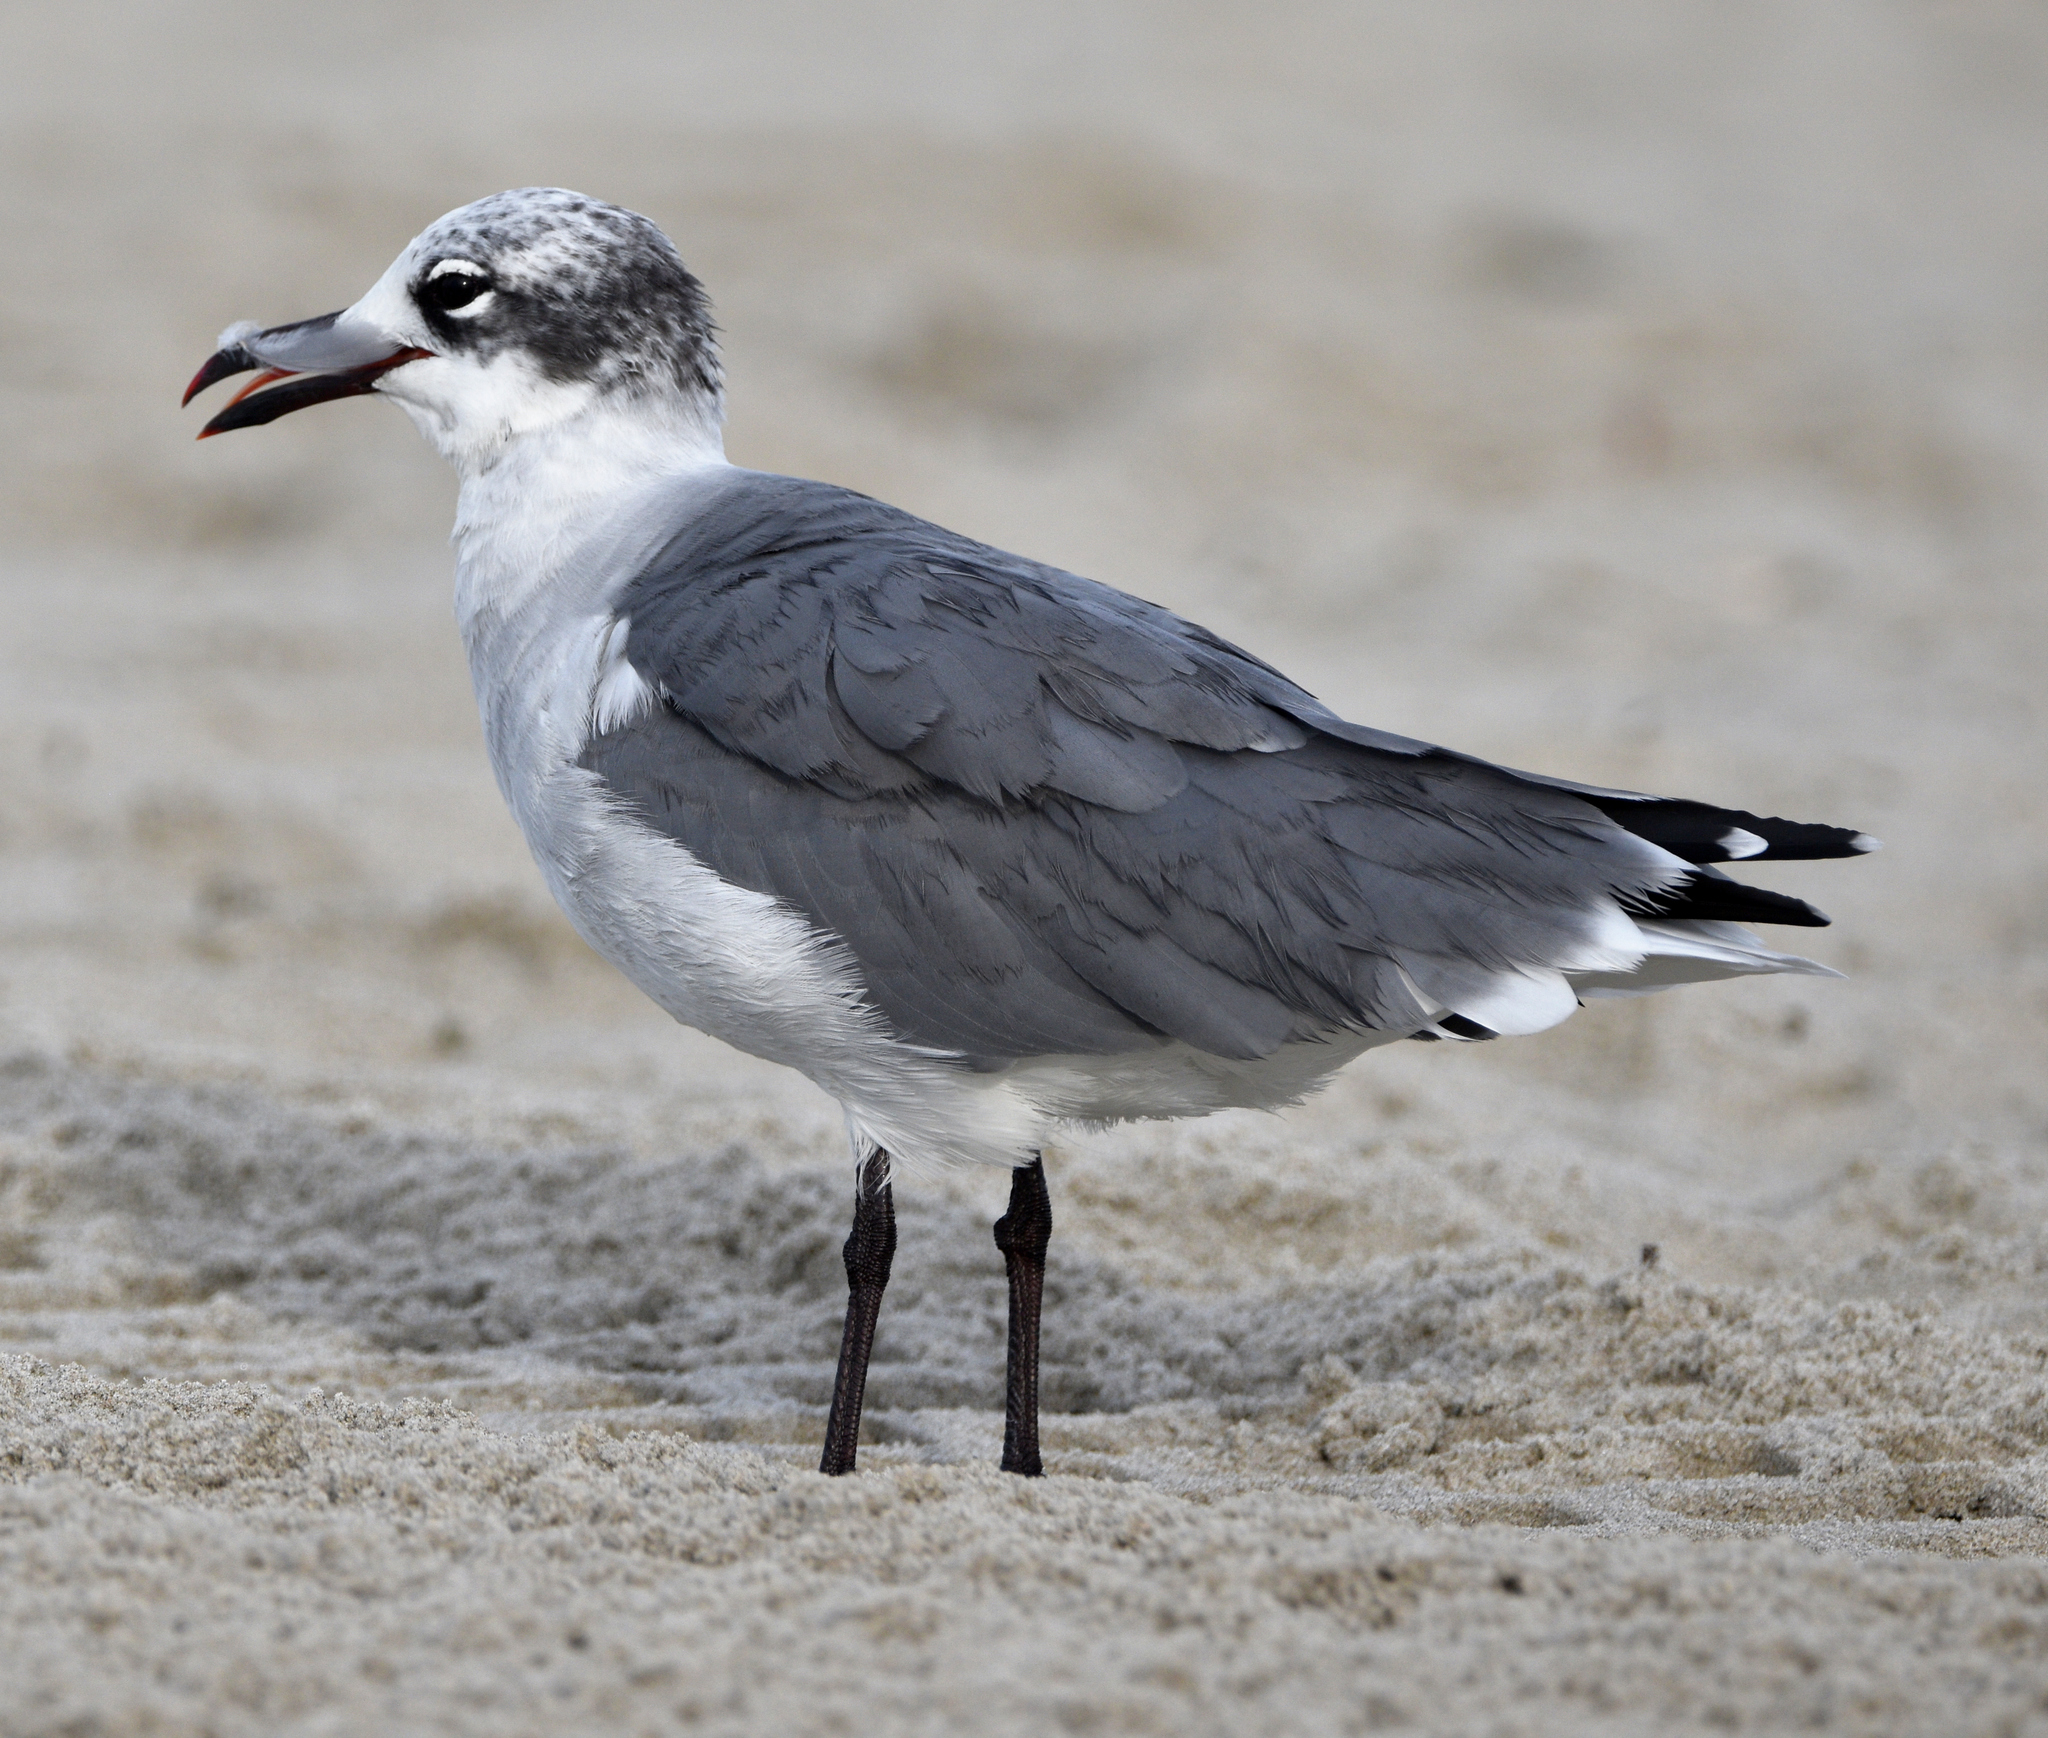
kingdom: Animalia
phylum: Chordata
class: Aves
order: Charadriiformes
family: Laridae
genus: Leucophaeus
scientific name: Leucophaeus atricilla
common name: Laughing gull
